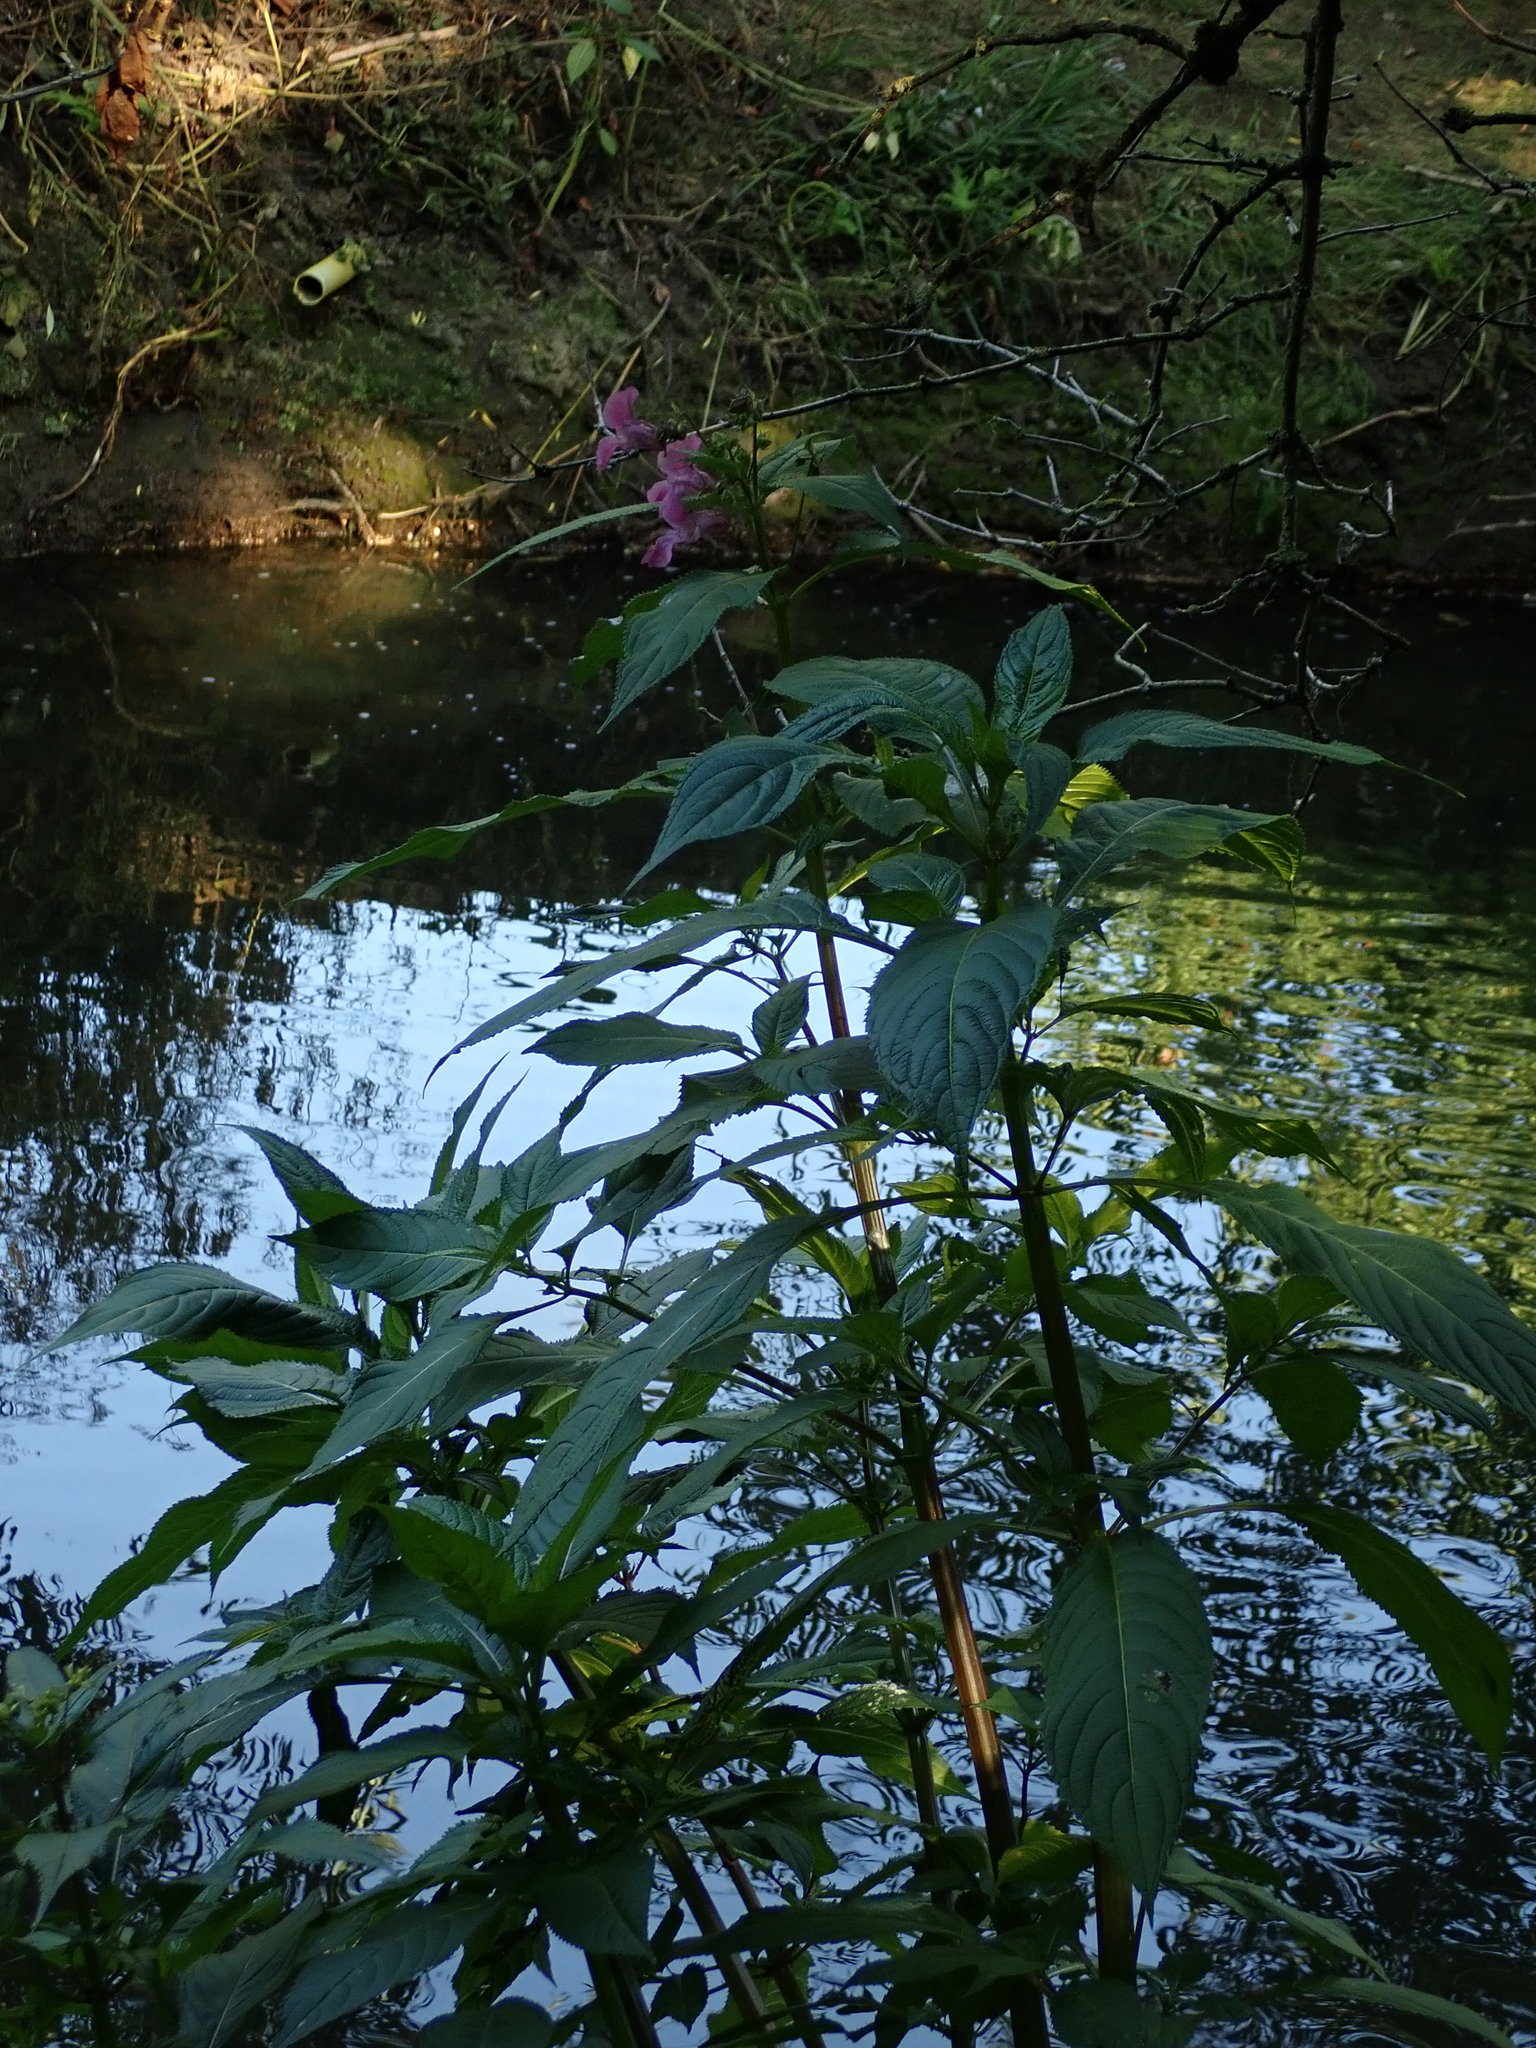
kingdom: Plantae
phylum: Tracheophyta
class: Magnoliopsida
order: Ericales
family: Balsaminaceae
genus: Impatiens
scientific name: Impatiens glandulifera
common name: Himalayan balsam
